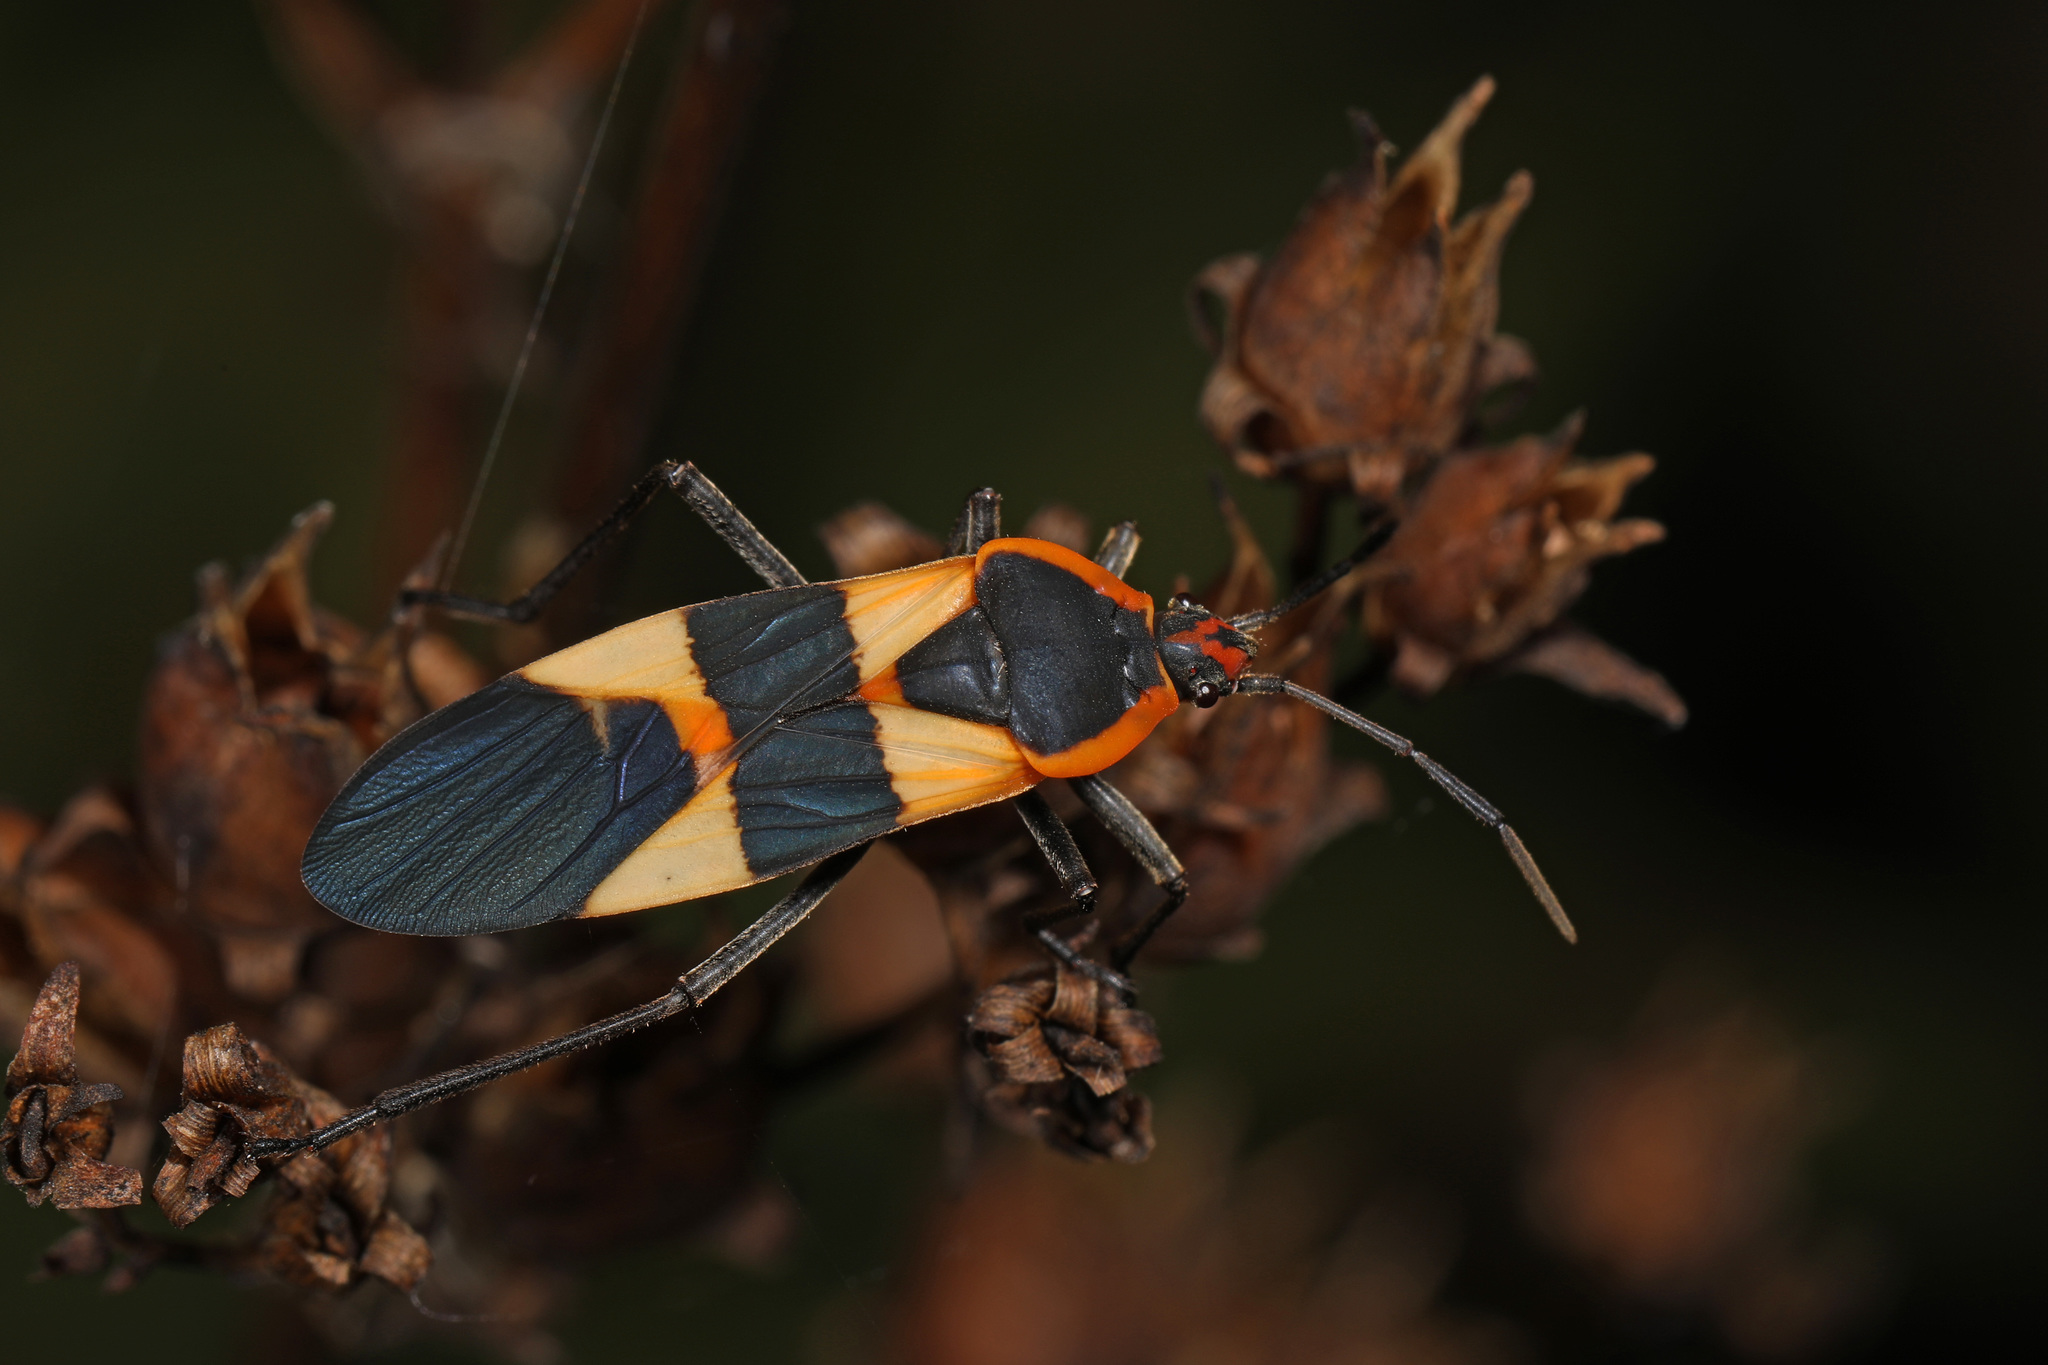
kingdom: Animalia
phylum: Arthropoda
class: Insecta
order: Hemiptera
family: Lygaeidae
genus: Oncopeltus
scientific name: Oncopeltus fasciatus
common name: Large milkweed bug
